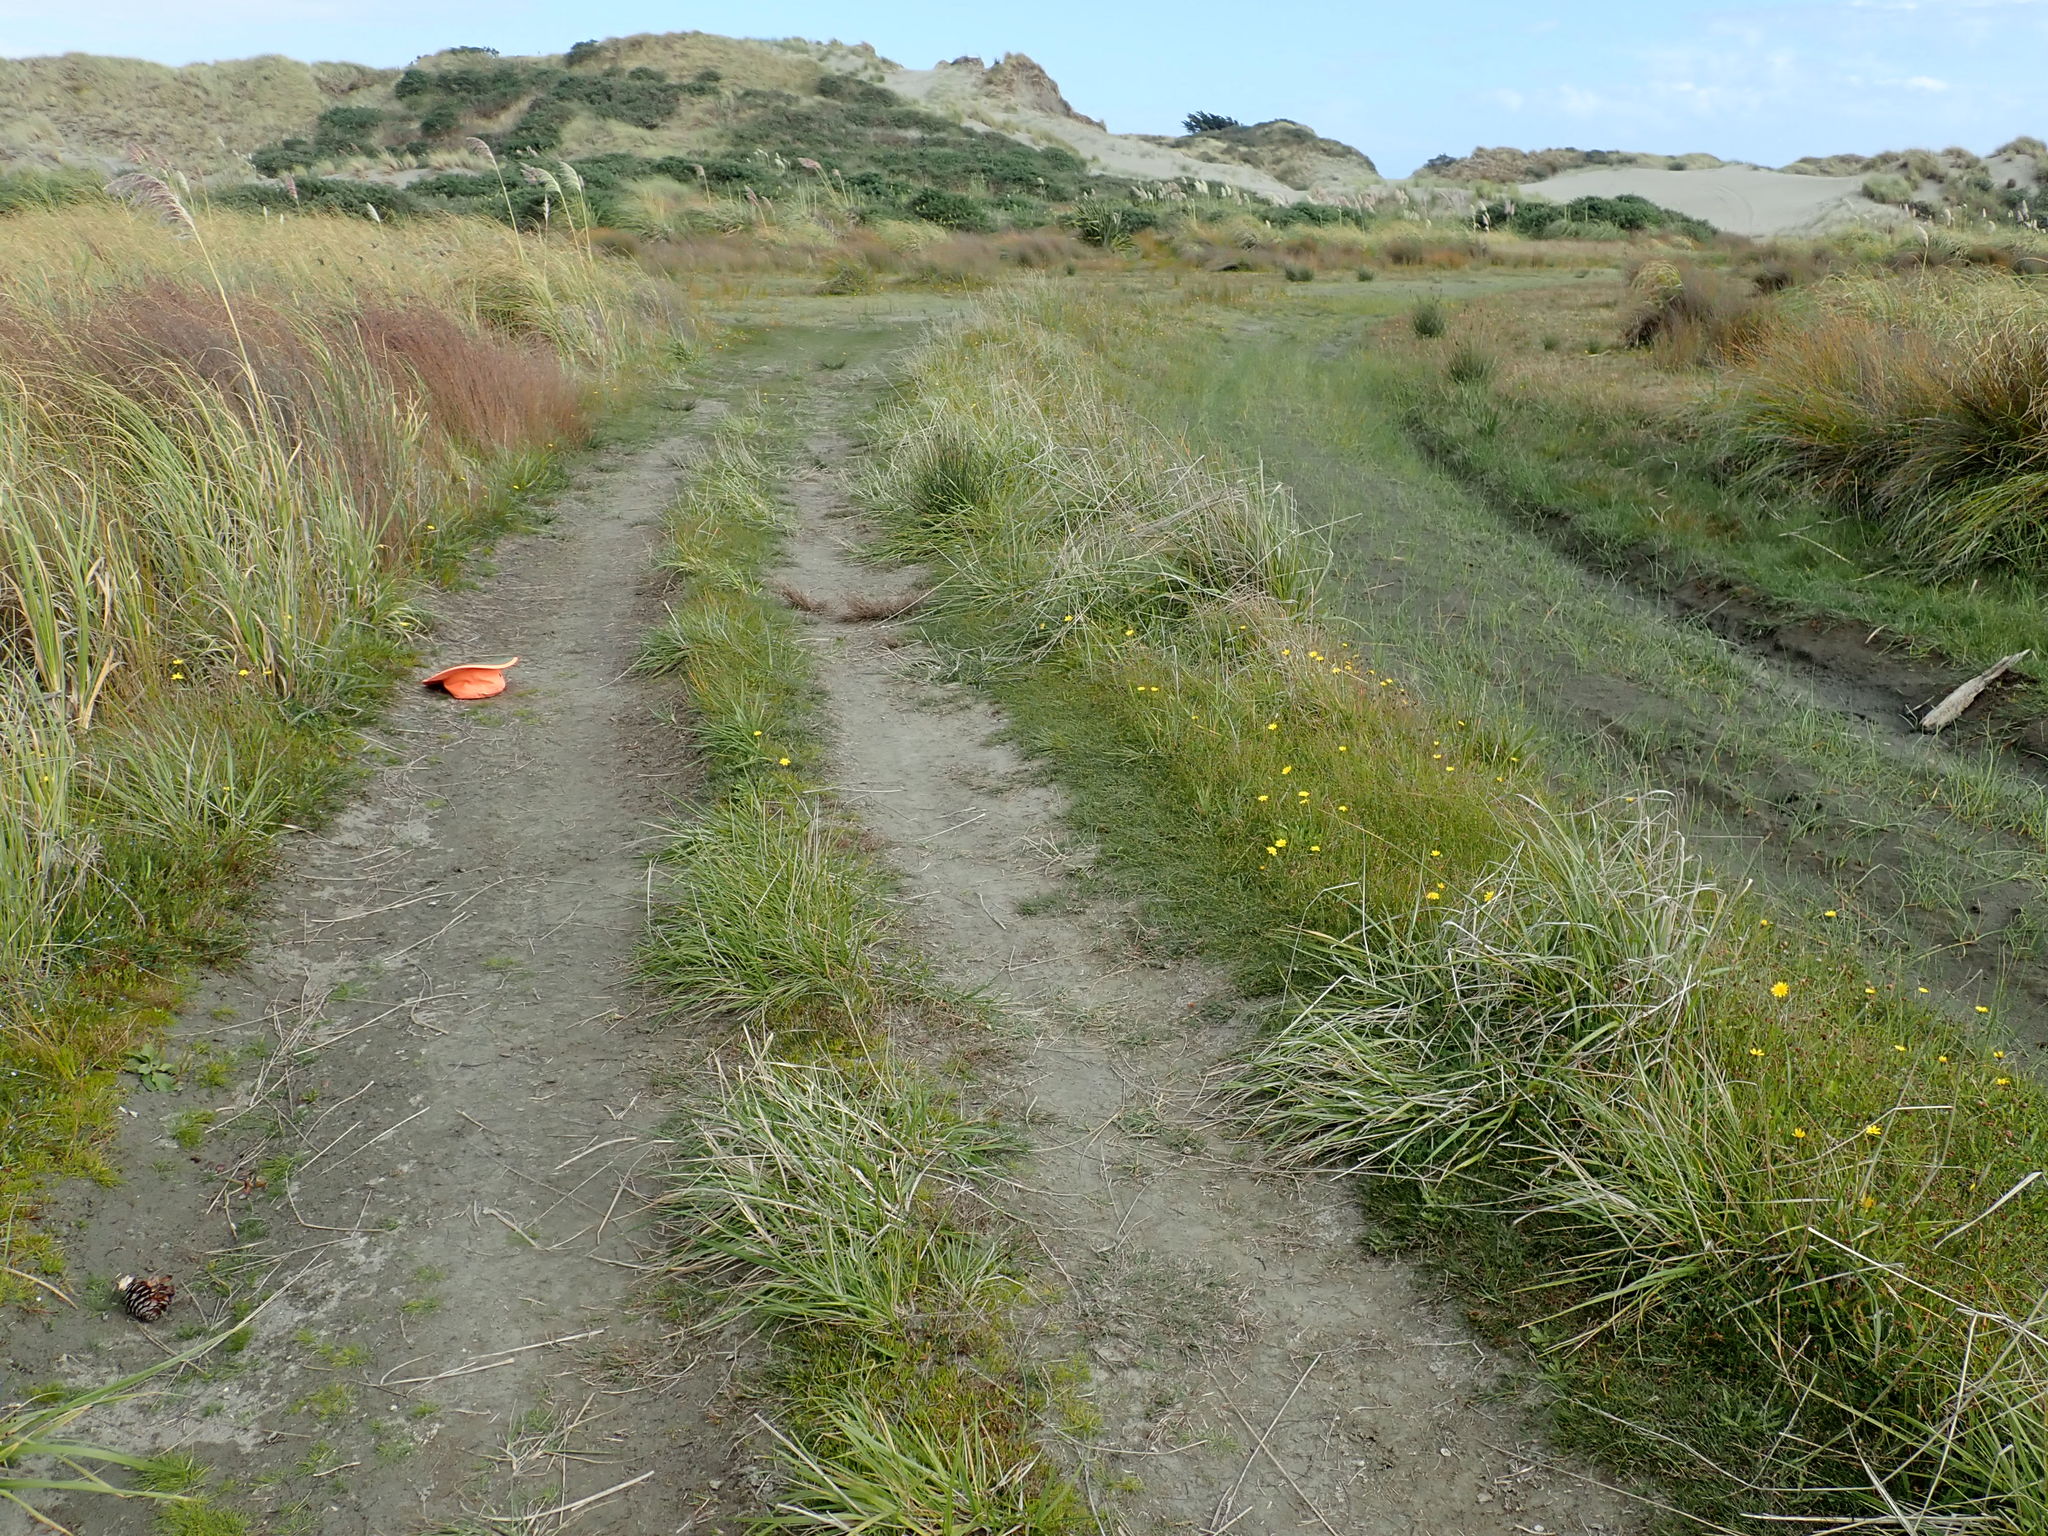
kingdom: Plantae
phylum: Tracheophyta
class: Liliopsida
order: Poales
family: Cyperaceae
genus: Isolepis
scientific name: Isolepis basilaris
